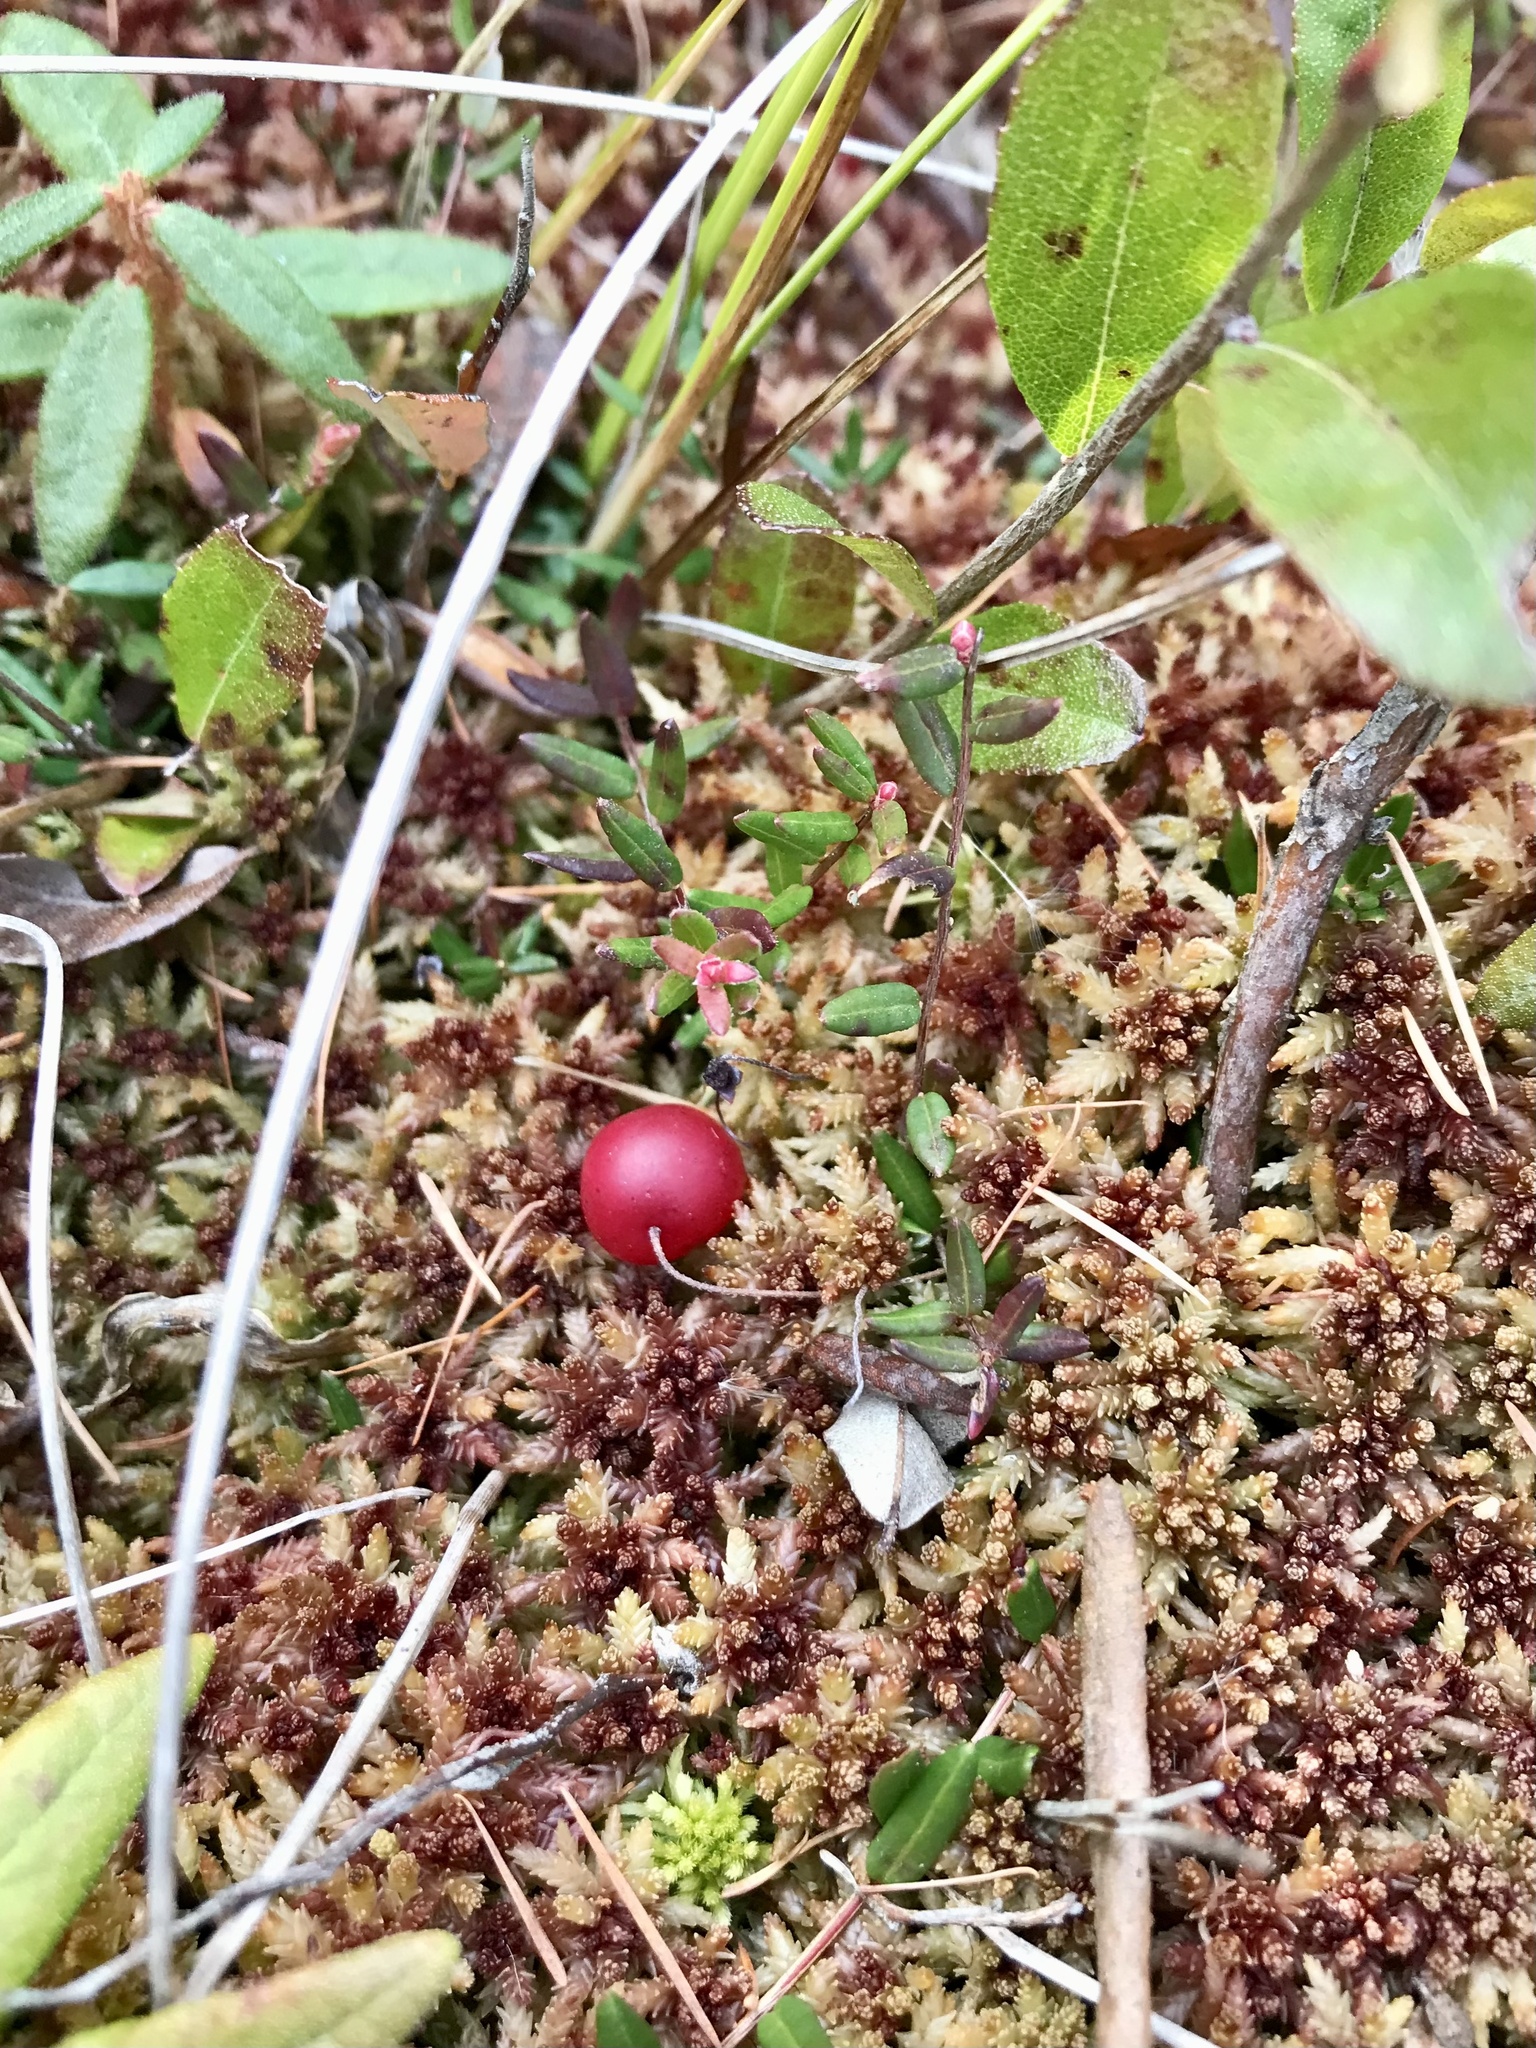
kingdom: Plantae
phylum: Tracheophyta
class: Magnoliopsida
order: Ericales
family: Ericaceae
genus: Vaccinium
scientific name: Vaccinium oxycoccos
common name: Cranberry
